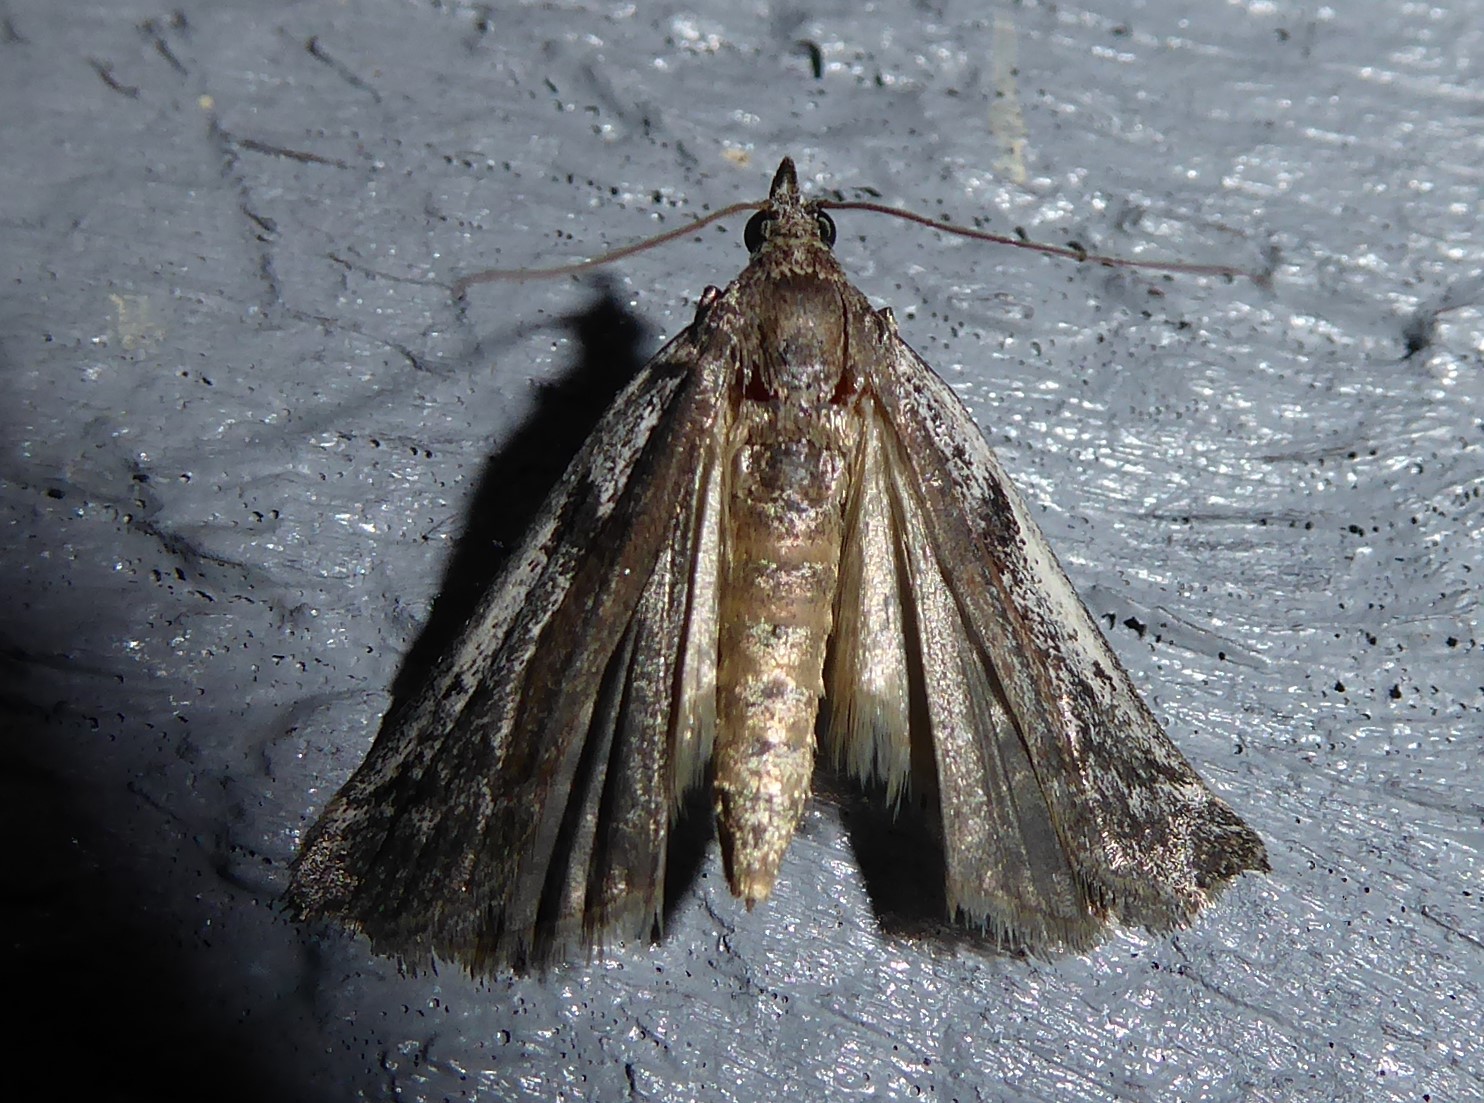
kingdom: Animalia
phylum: Arthropoda
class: Insecta
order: Lepidoptera
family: Pyralidae
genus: Patagoniodes
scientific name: Patagoniodes farinaria
